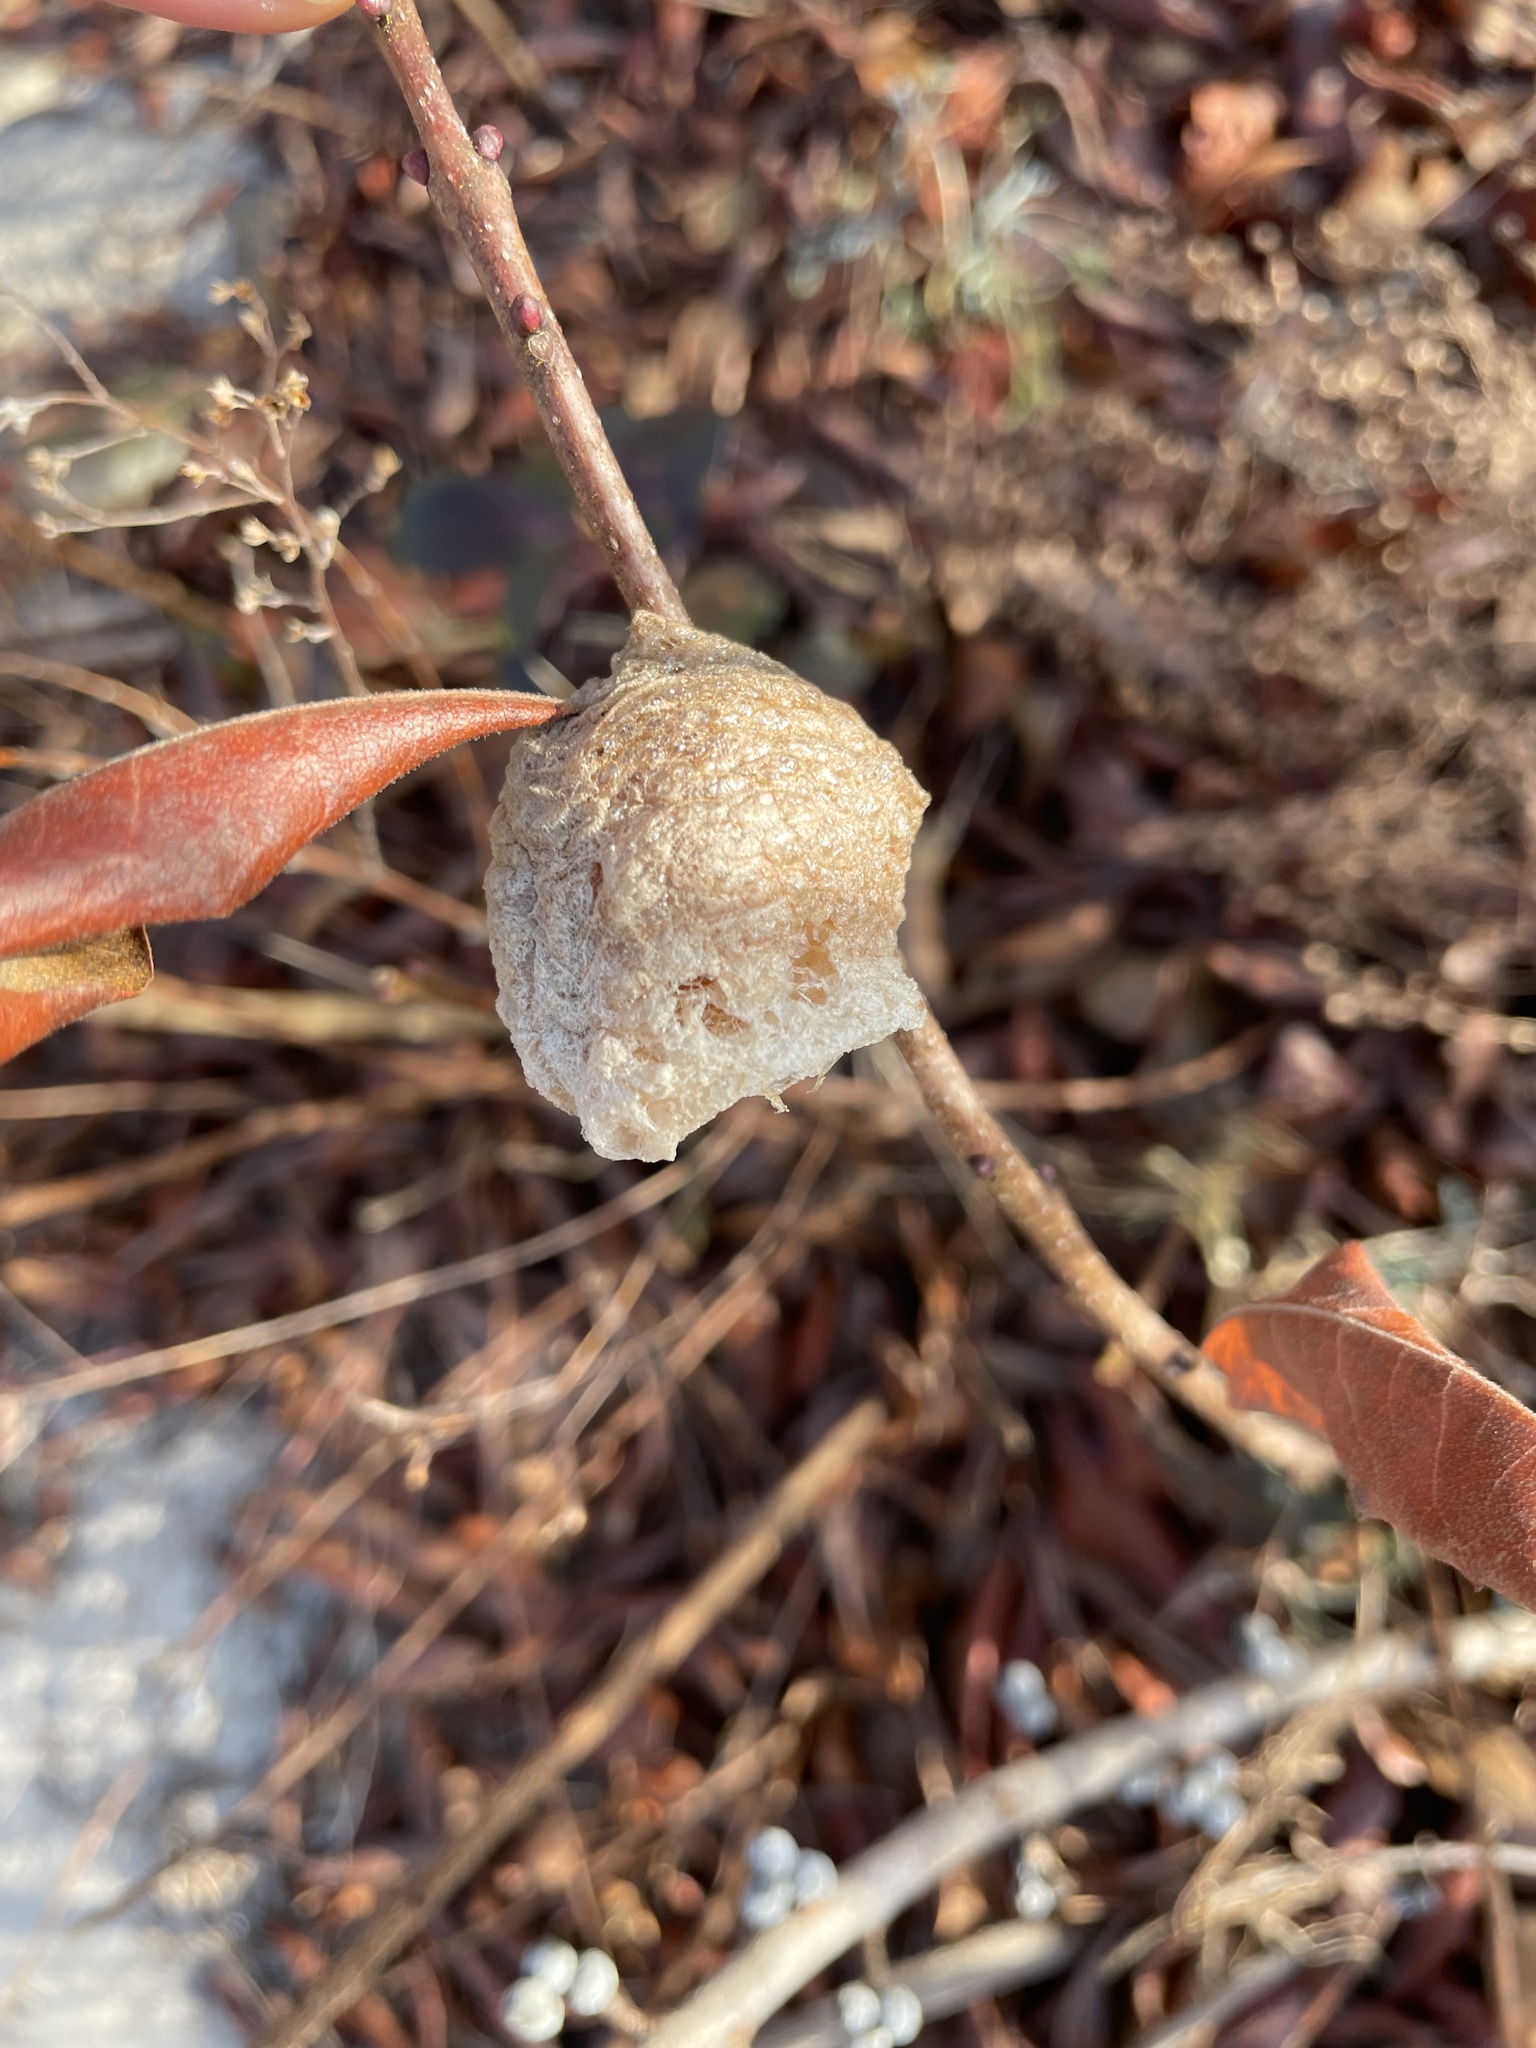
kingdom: Animalia
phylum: Arthropoda
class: Insecta
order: Mantodea
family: Mantidae
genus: Tenodera
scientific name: Tenodera sinensis
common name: Chinese mantis
